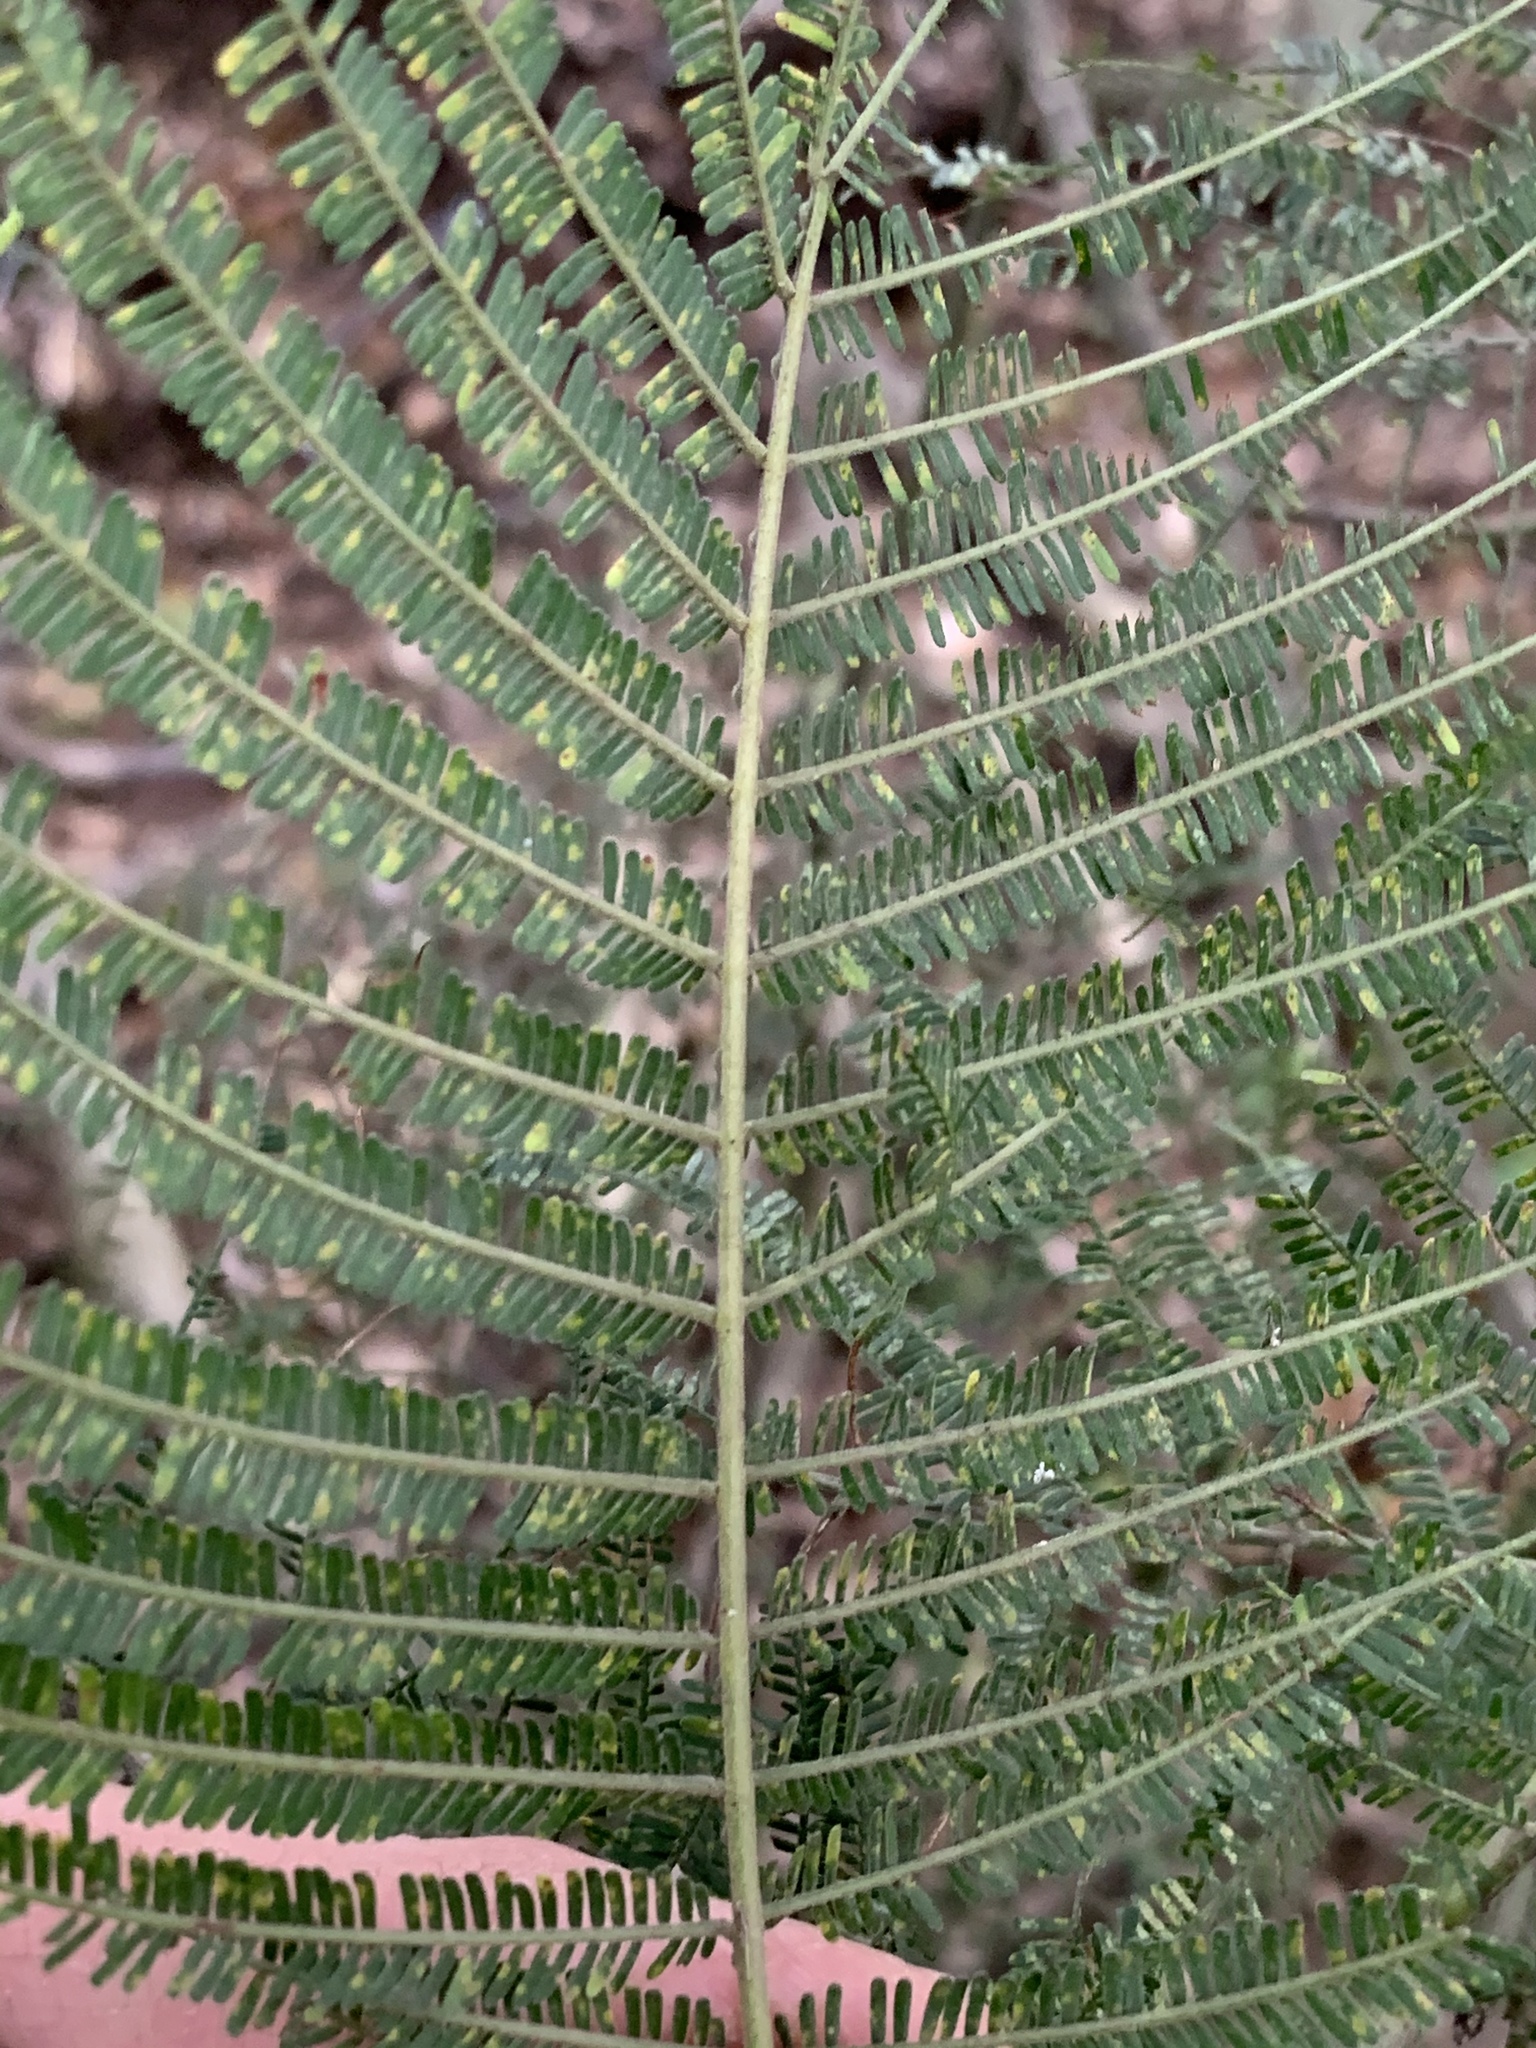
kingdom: Plantae
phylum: Tracheophyta
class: Magnoliopsida
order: Fabales
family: Fabaceae
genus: Acacia
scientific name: Acacia mearnsii
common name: Black wattle
